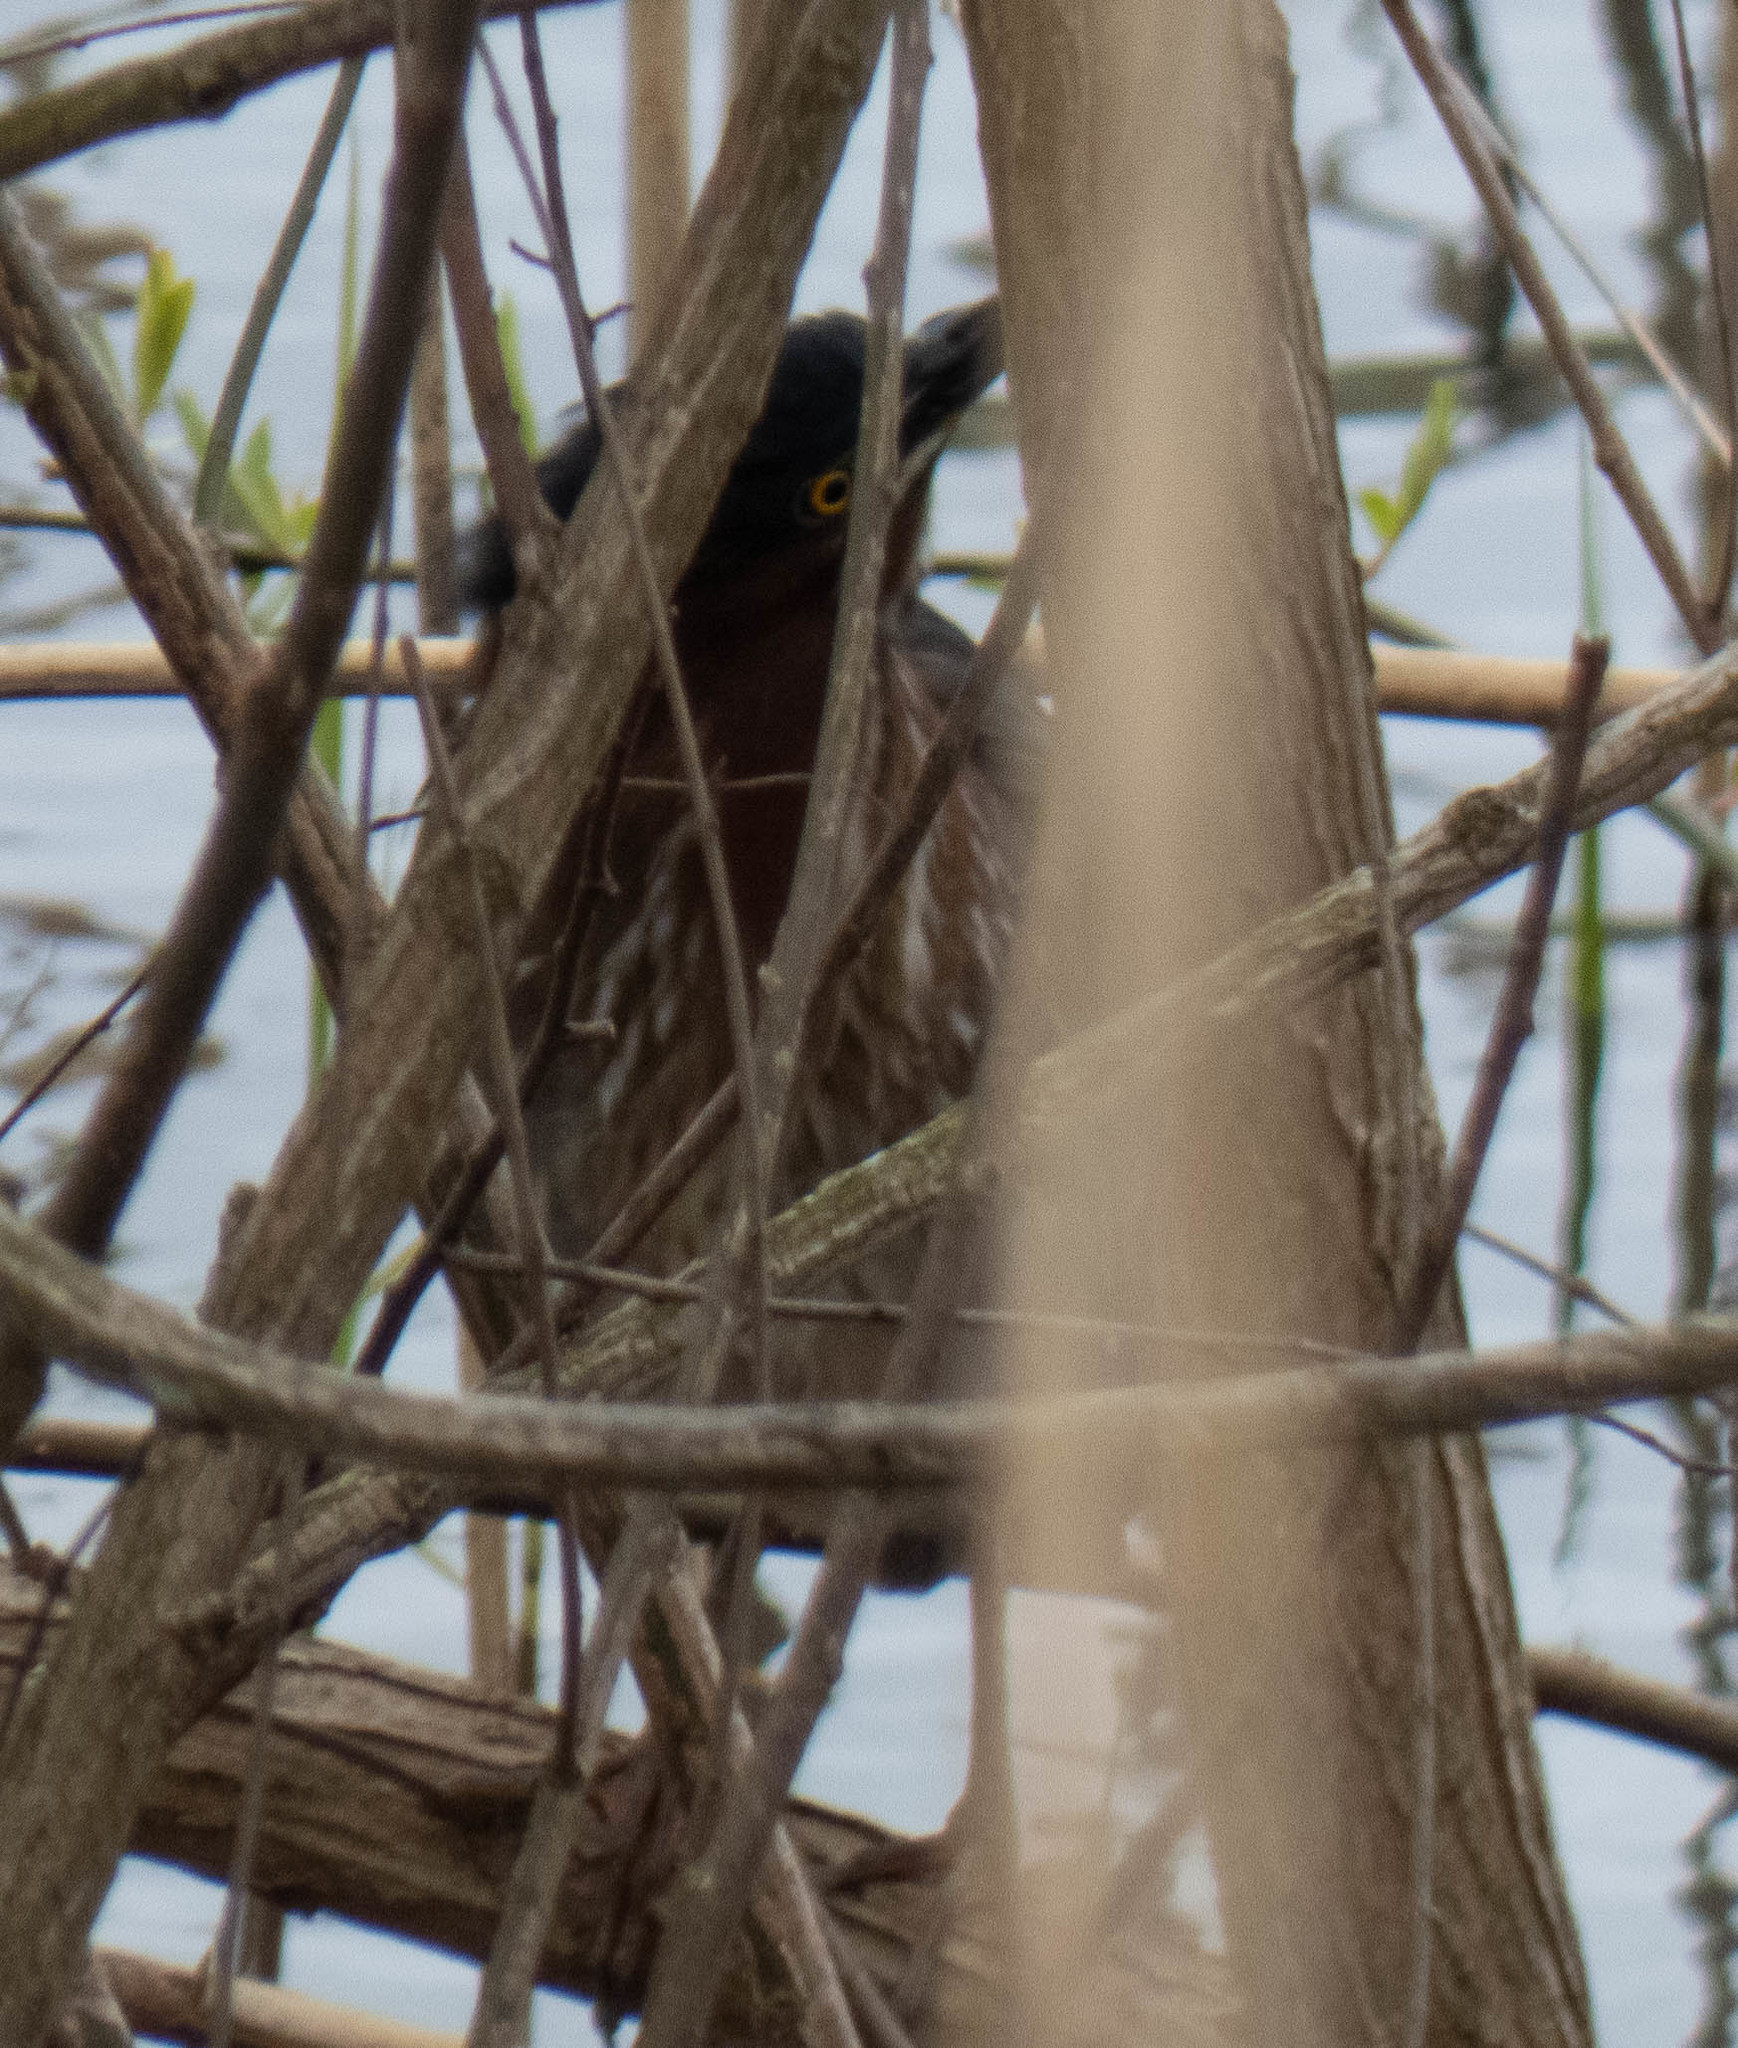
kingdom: Animalia
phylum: Chordata
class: Aves
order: Pelecaniformes
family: Ardeidae
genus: Butorides
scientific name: Butorides virescens
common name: Green heron
